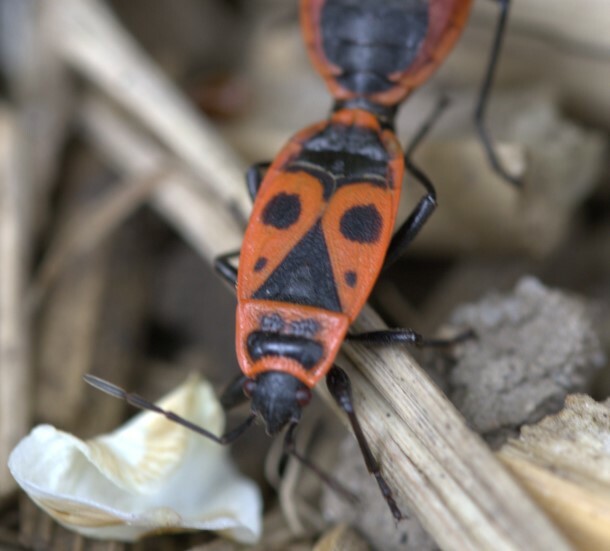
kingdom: Animalia
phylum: Arthropoda
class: Insecta
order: Hemiptera
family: Pyrrhocoridae
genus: Pyrrhocoris
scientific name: Pyrrhocoris apterus
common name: Firebug
